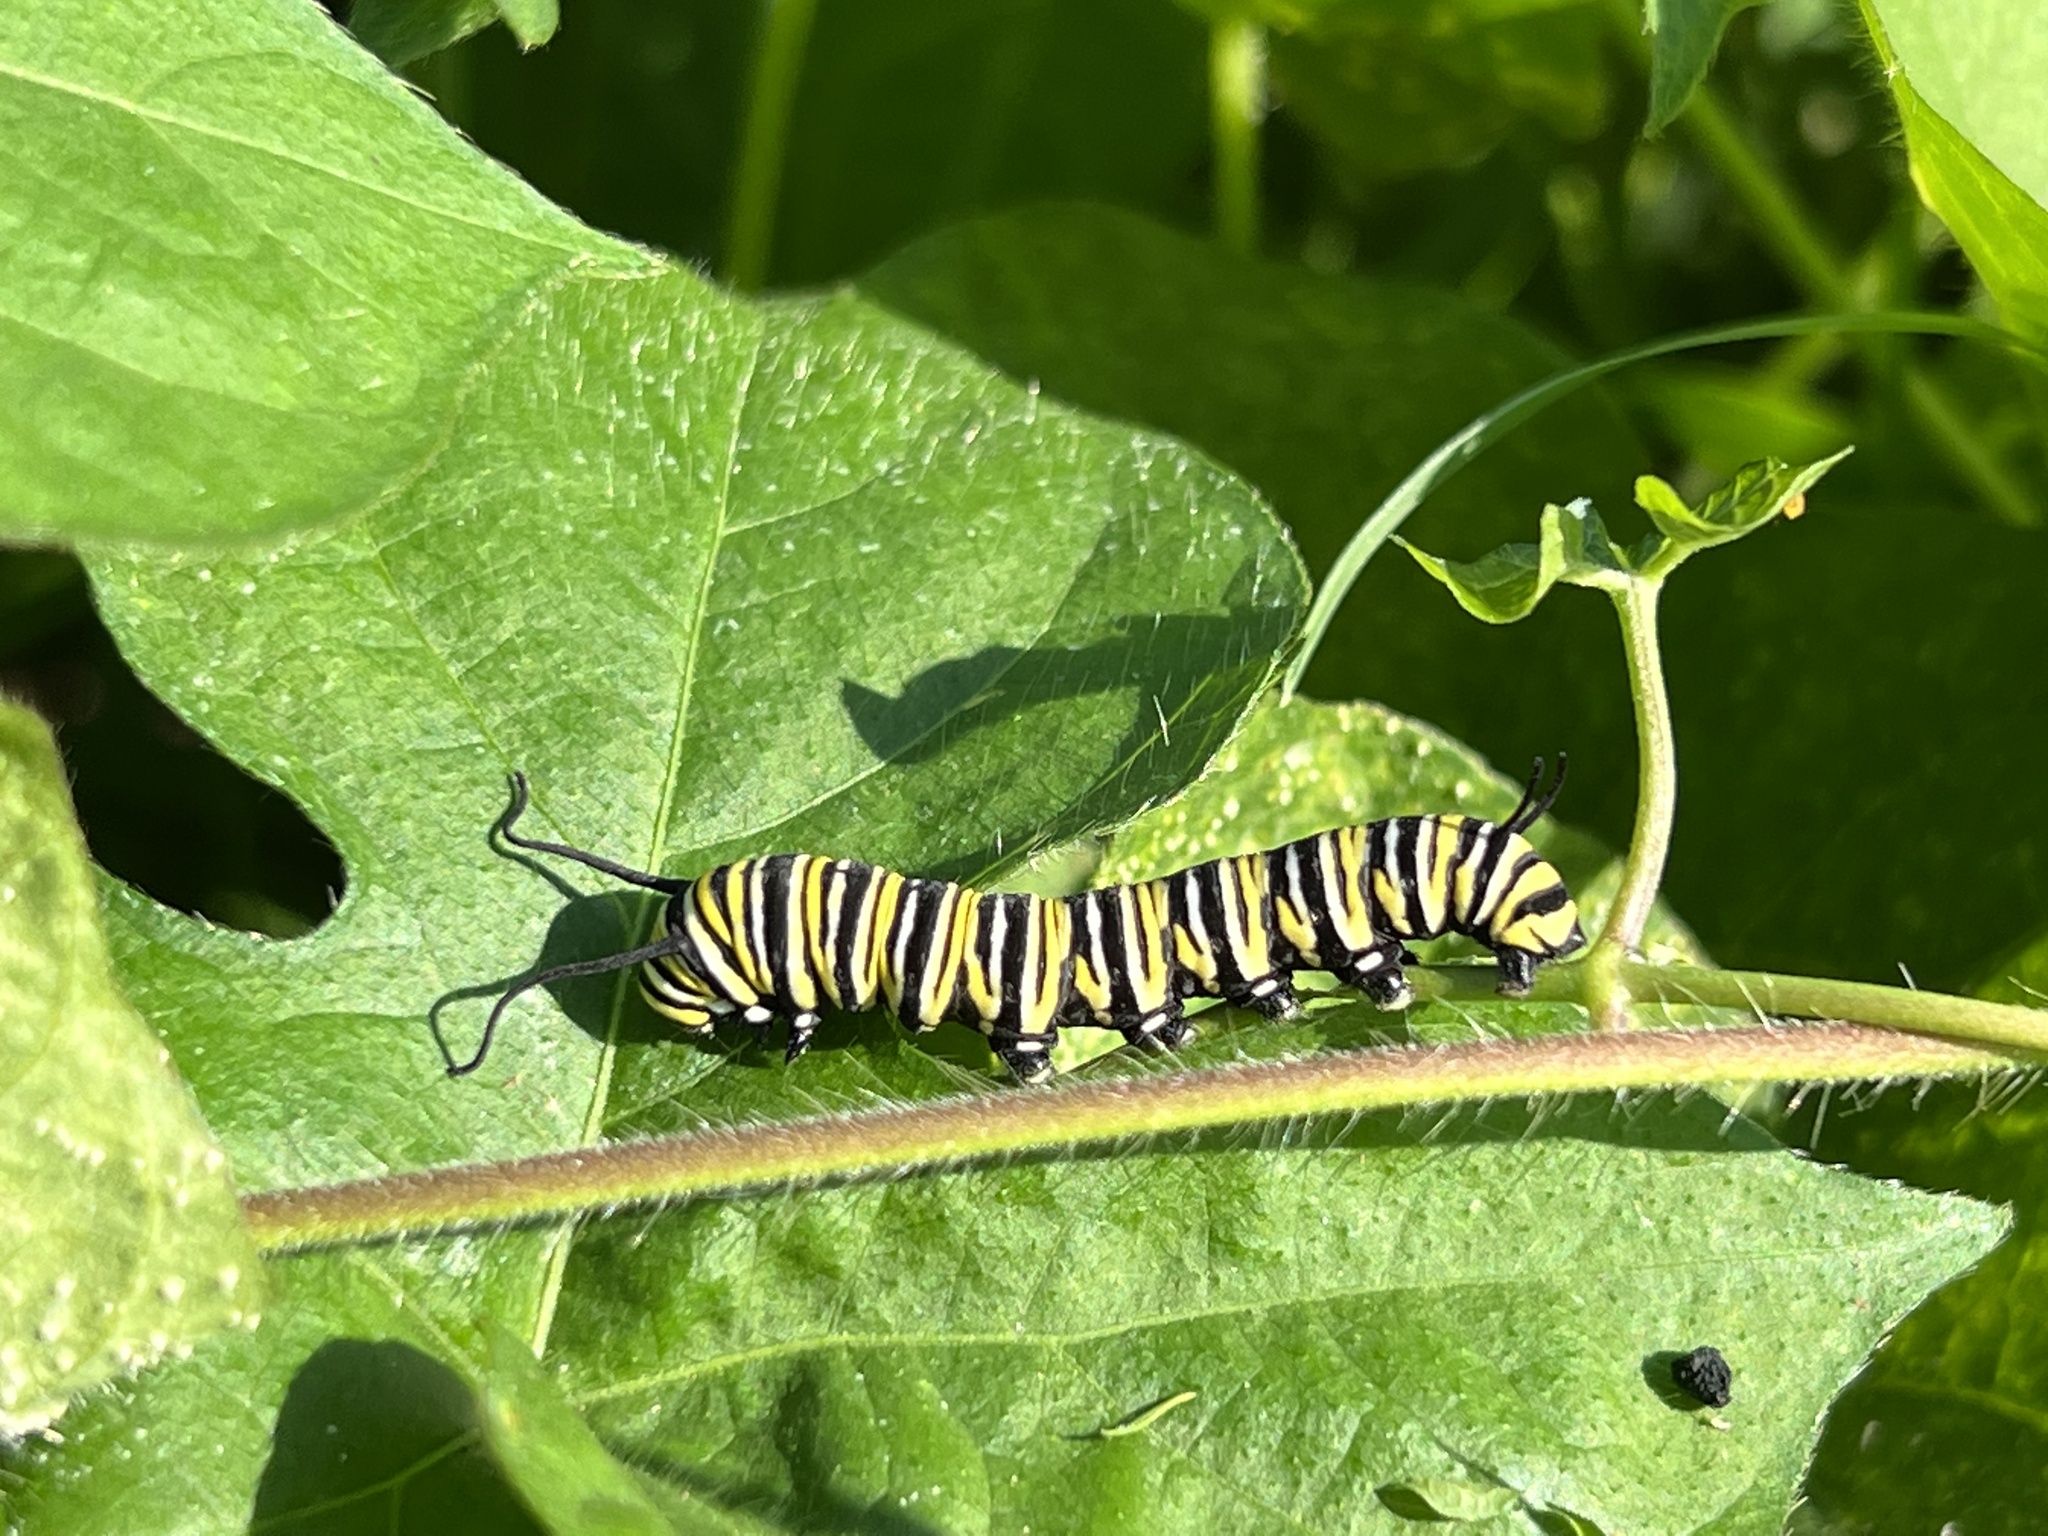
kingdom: Animalia
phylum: Arthropoda
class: Insecta
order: Lepidoptera
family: Nymphalidae
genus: Danaus
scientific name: Danaus plexippus
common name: Monarch
